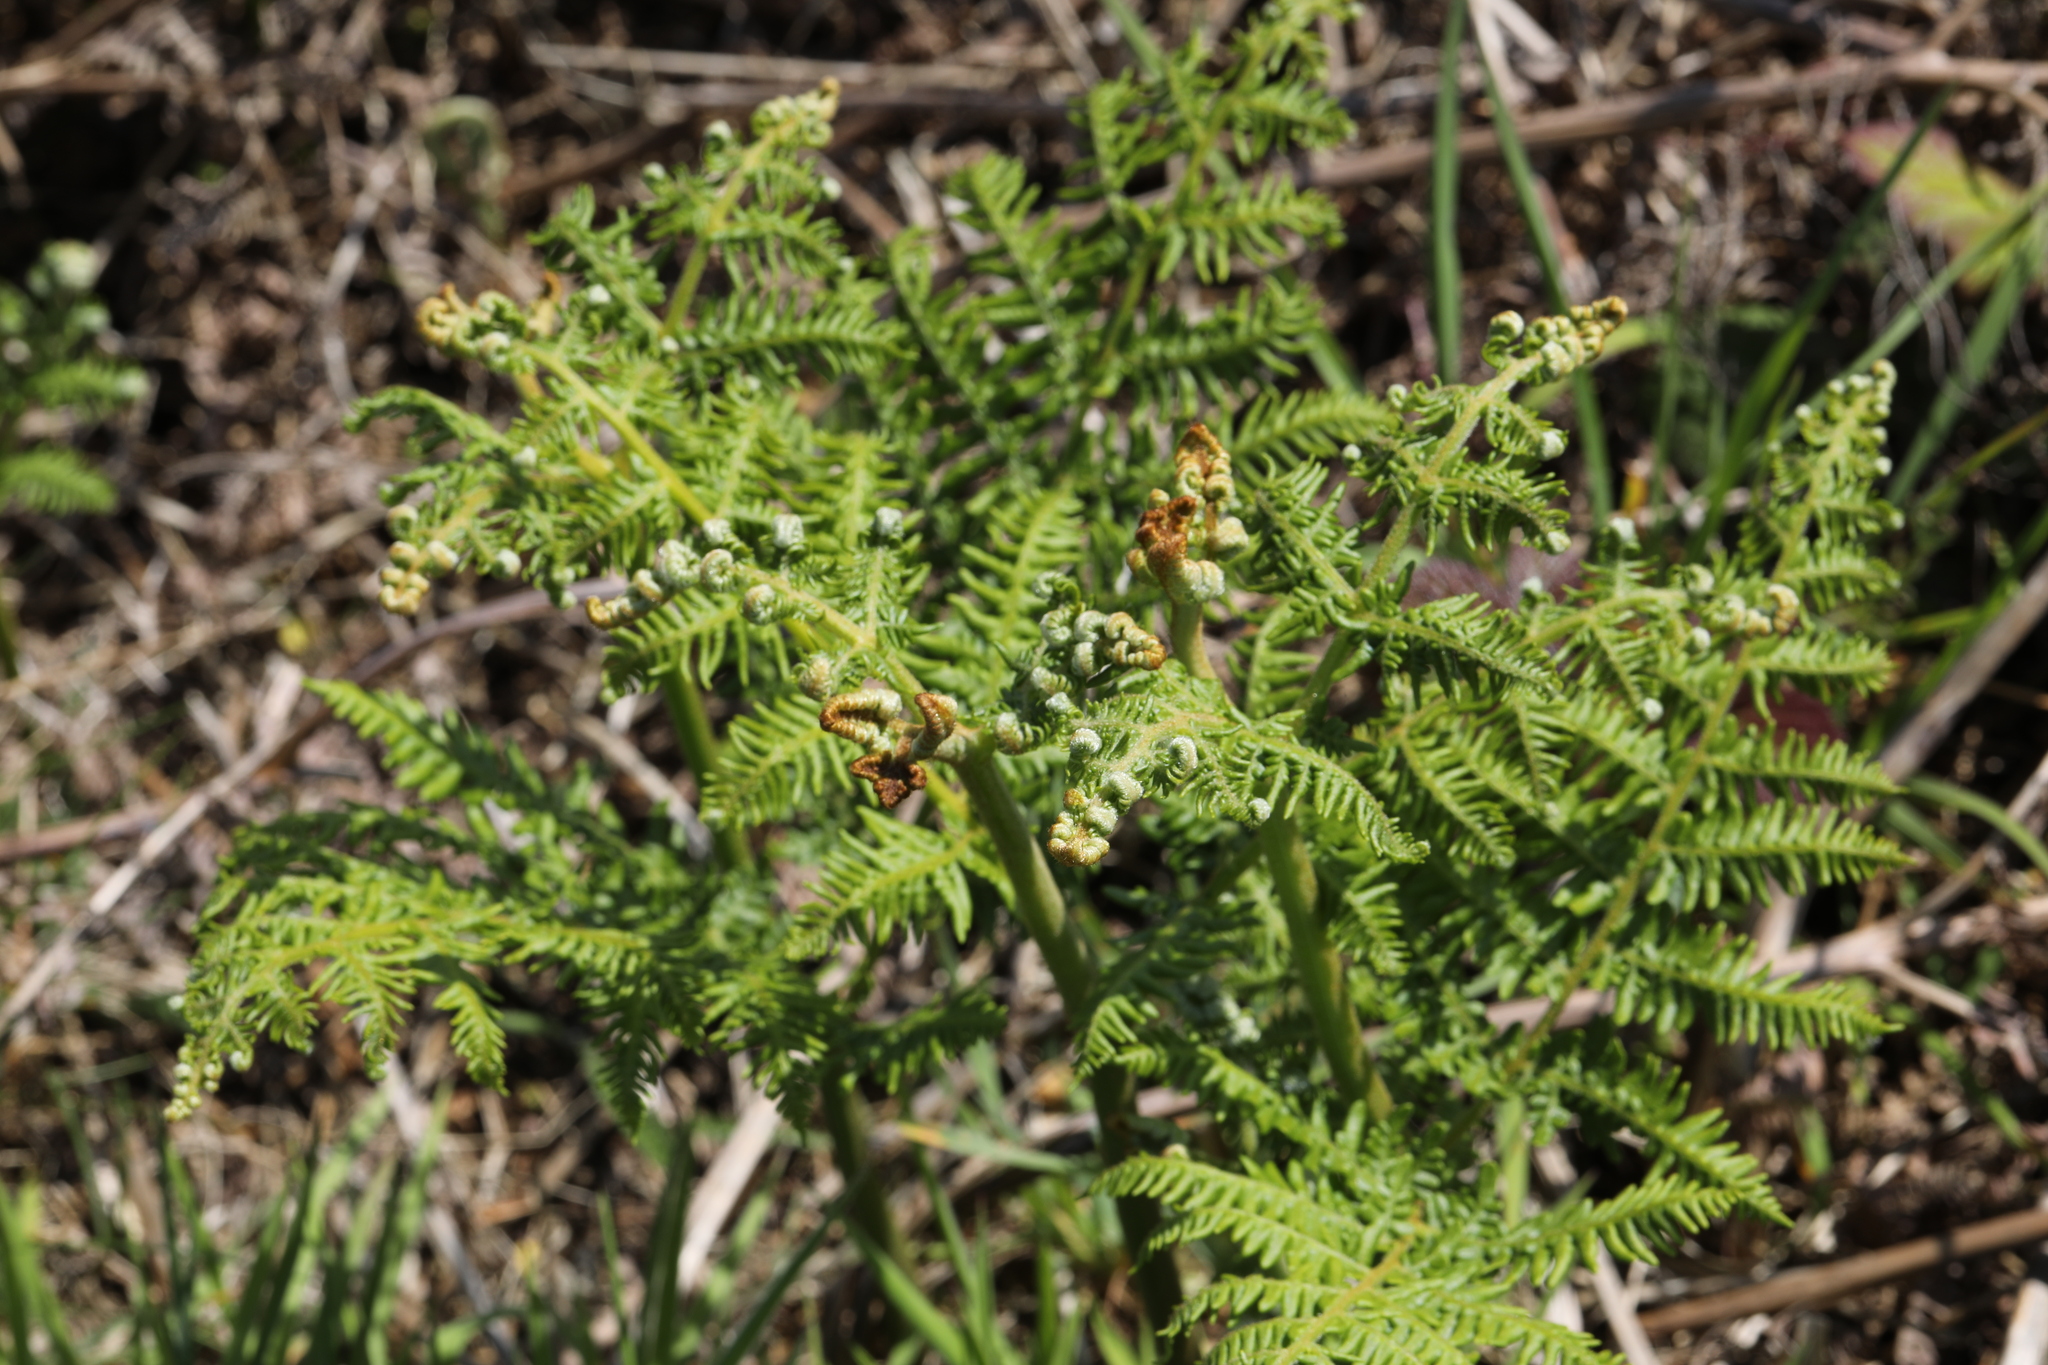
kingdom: Plantae
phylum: Tracheophyta
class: Polypodiopsida
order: Polypodiales
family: Dennstaedtiaceae
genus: Pteridium
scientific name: Pteridium aquilinum
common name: Bracken
